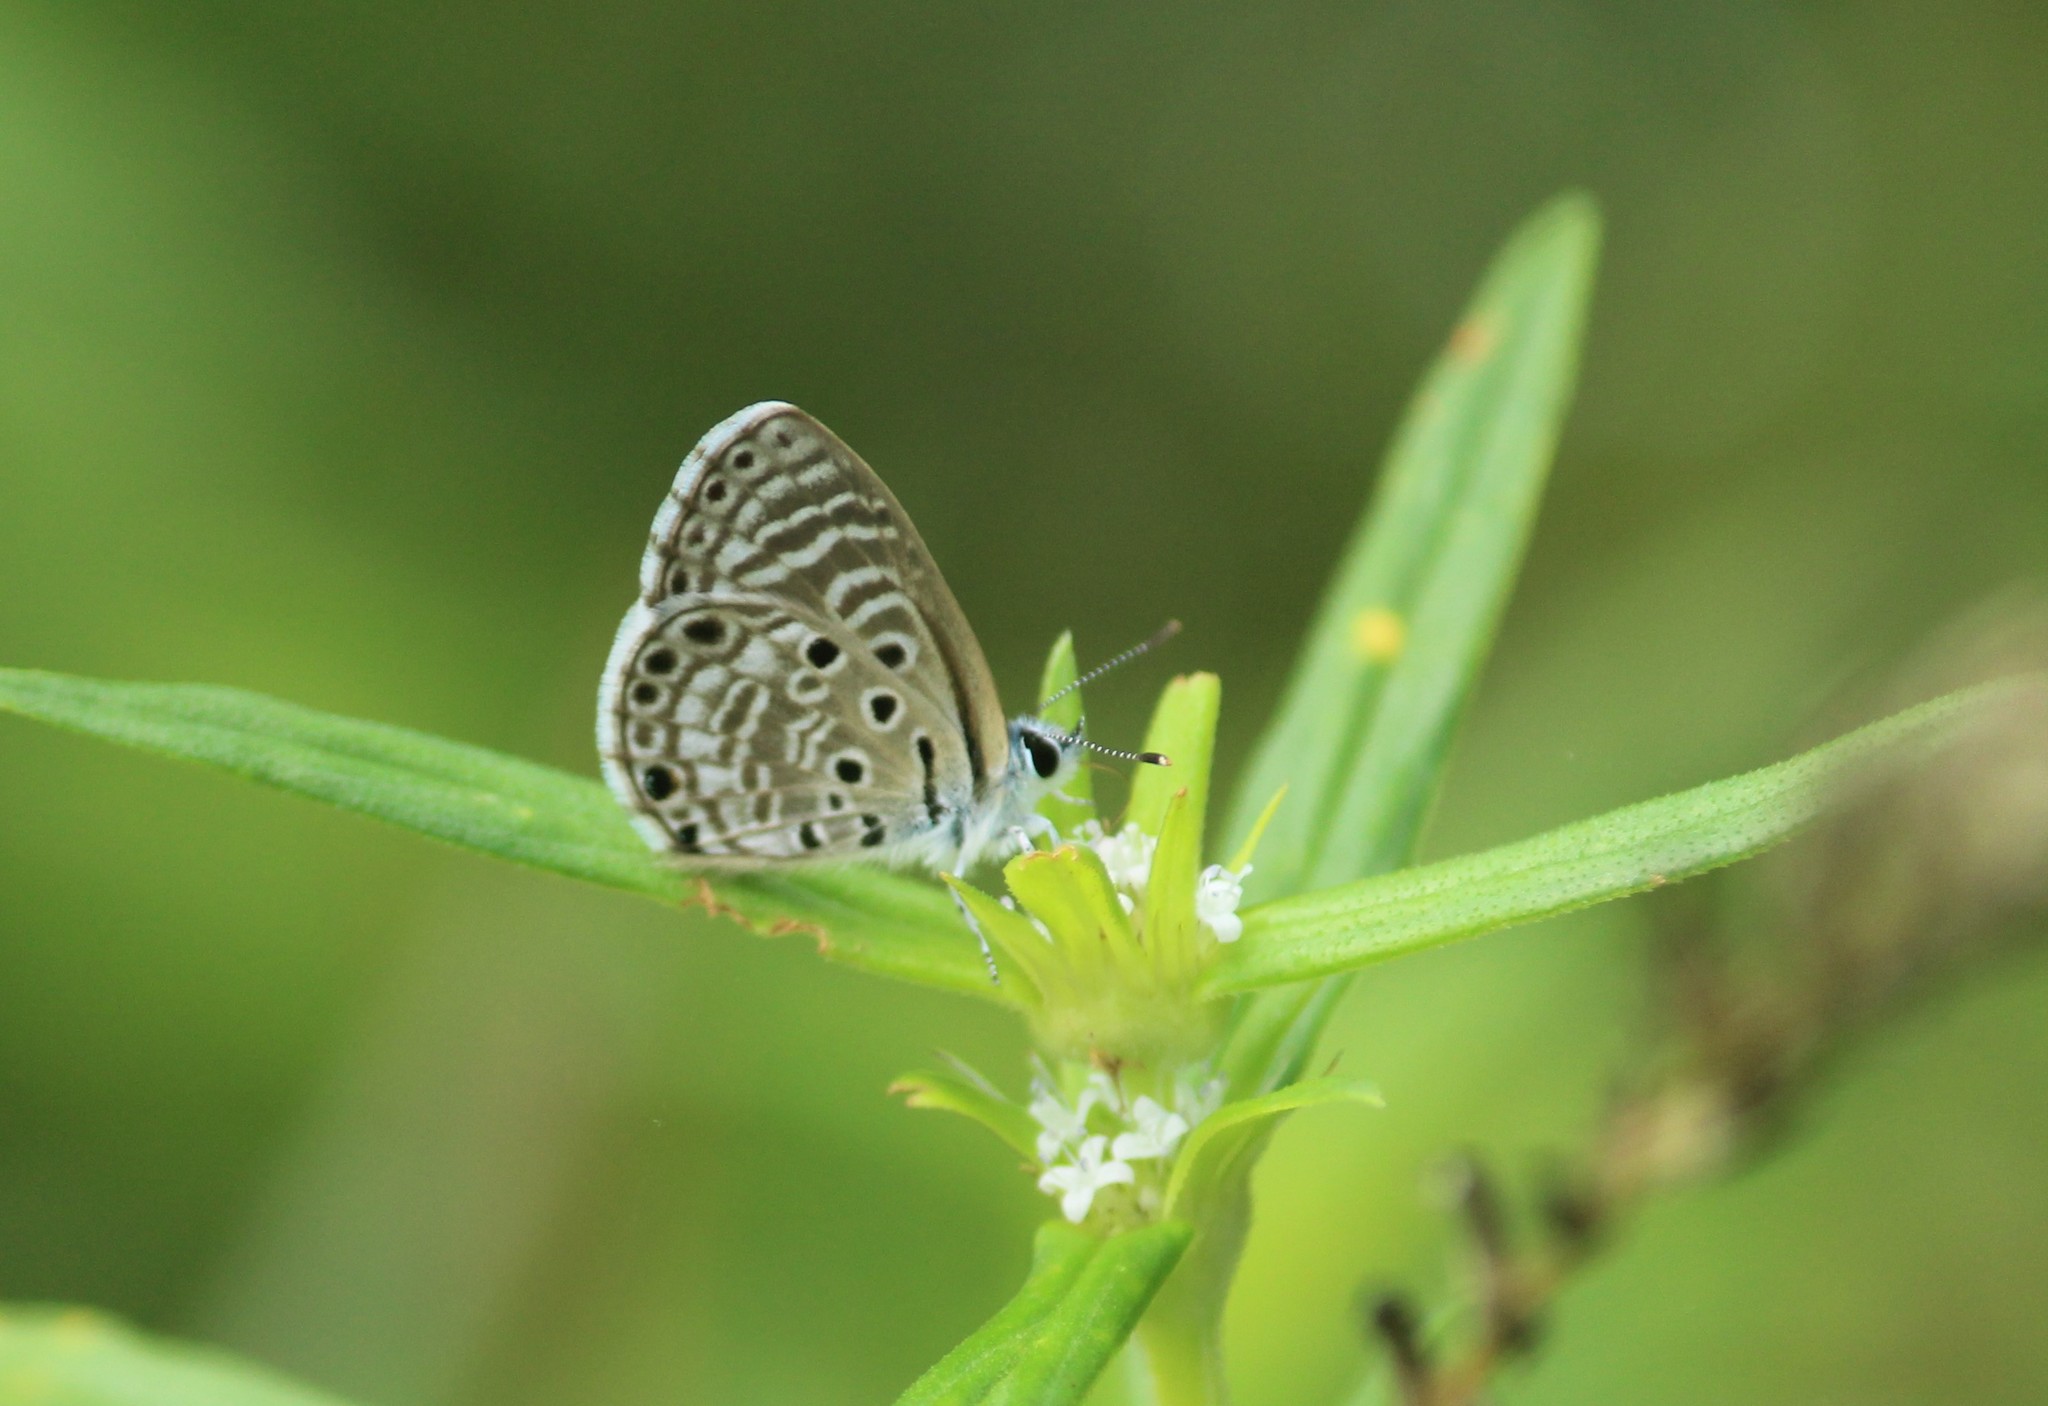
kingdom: Animalia
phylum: Arthropoda
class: Insecta
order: Lepidoptera
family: Lycaenidae
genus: Azanus
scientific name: Azanus jesous
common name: African babul blue
